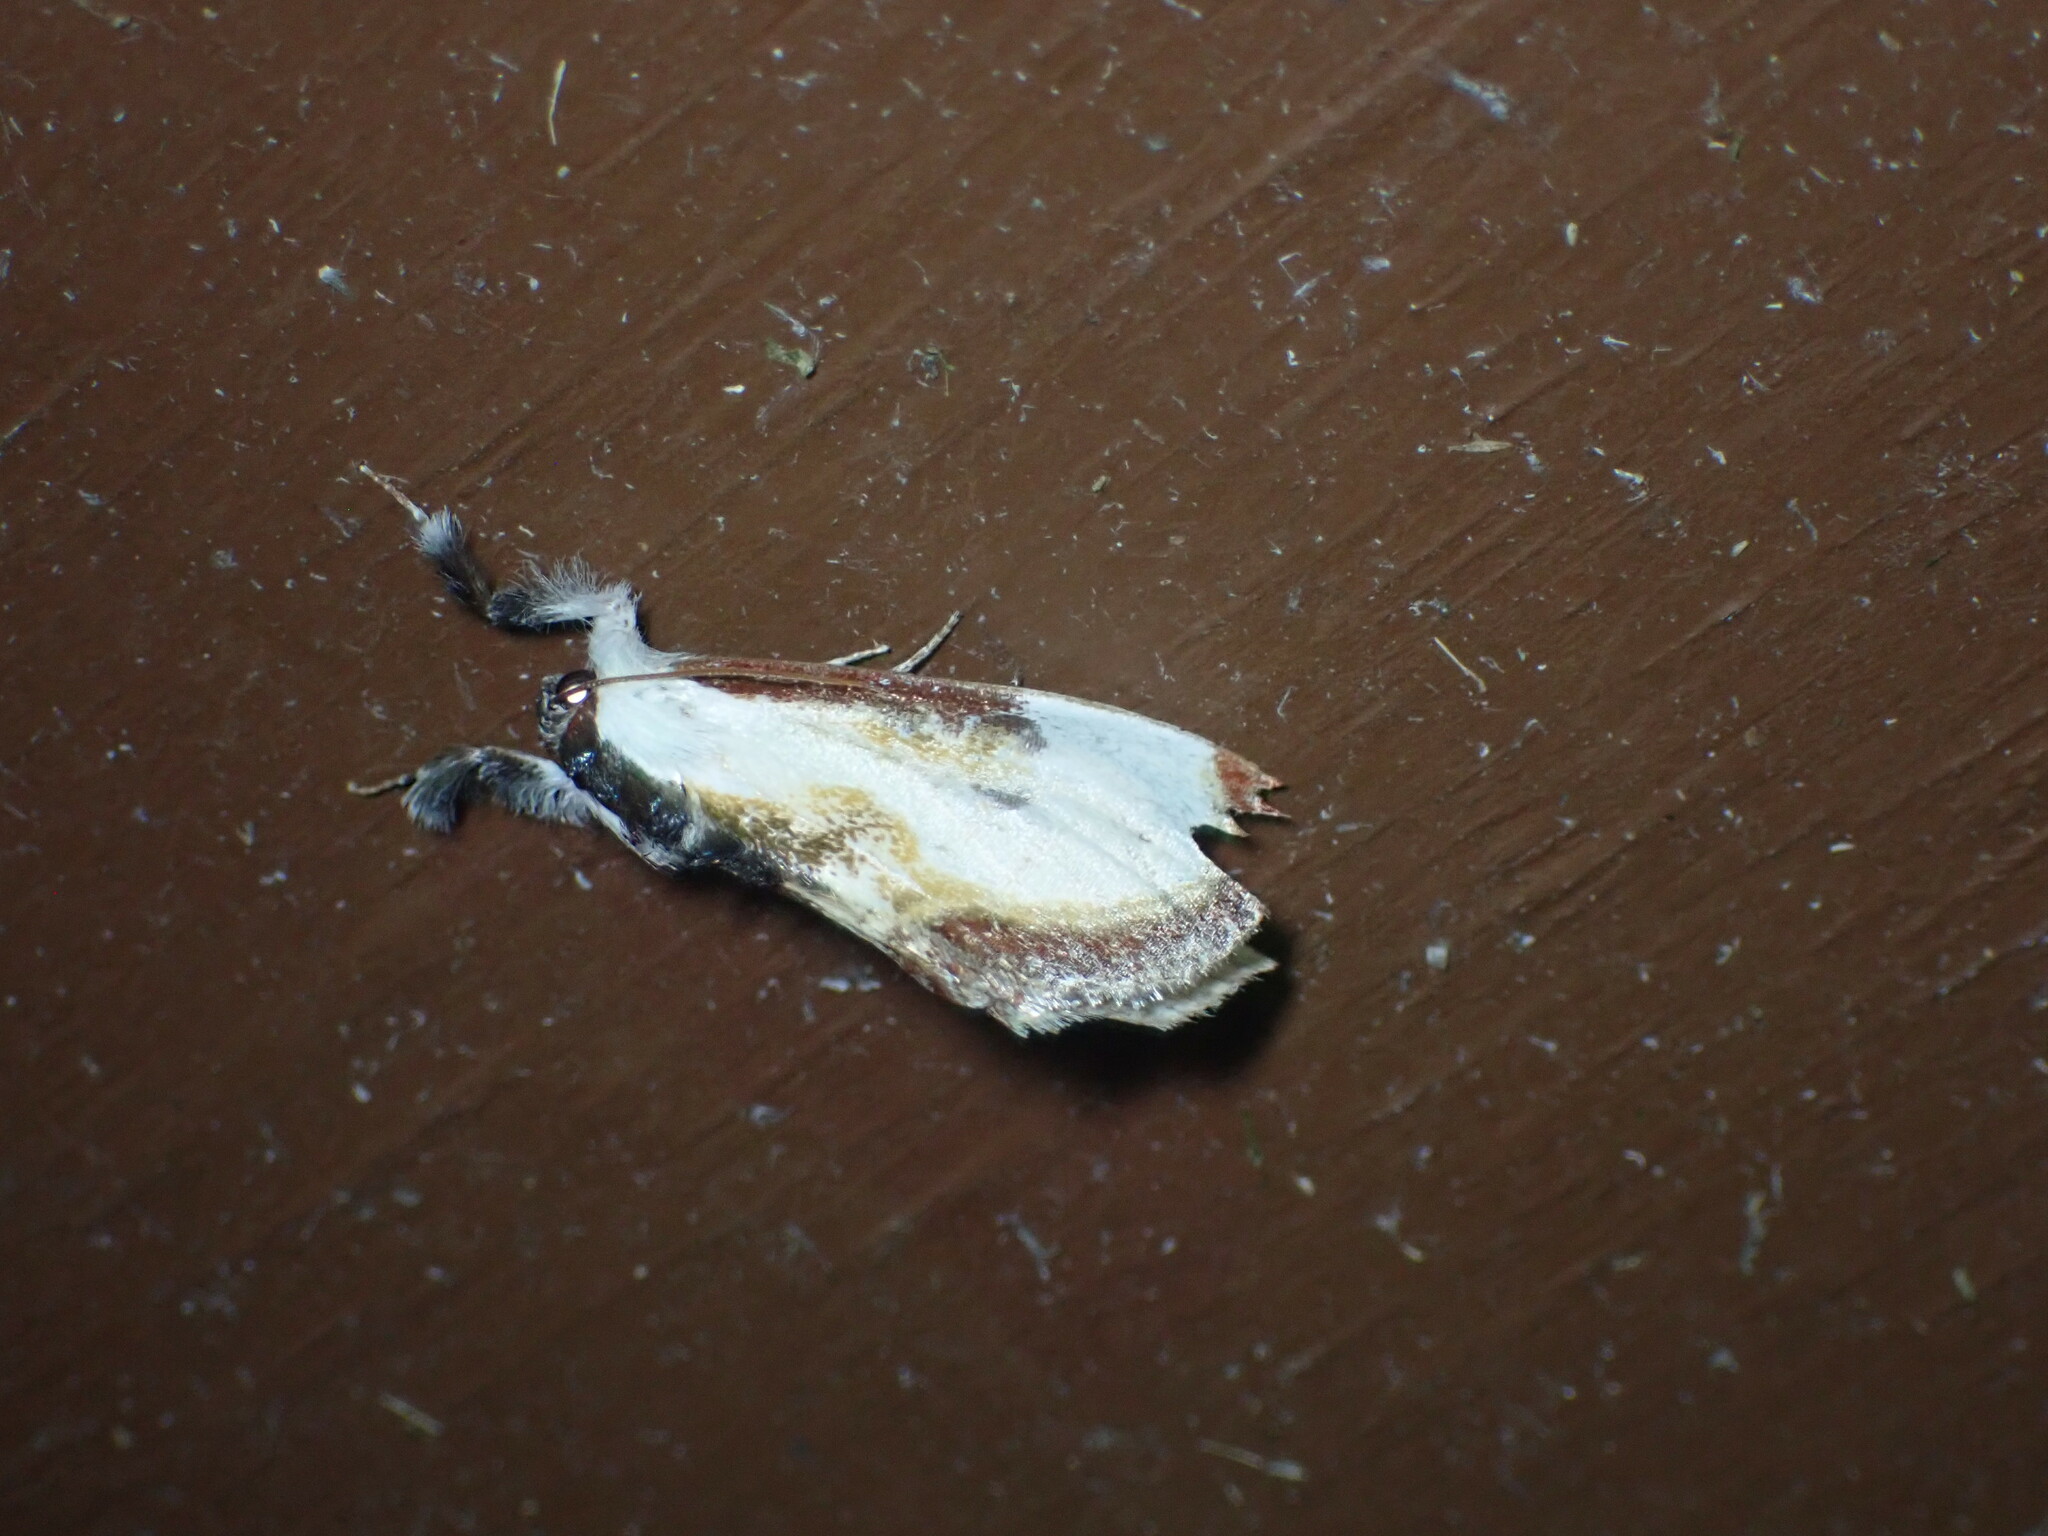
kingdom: Animalia
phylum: Arthropoda
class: Insecta
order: Lepidoptera
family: Noctuidae
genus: Eudryas
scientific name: Eudryas grata
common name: Beautiful wood-nymph
